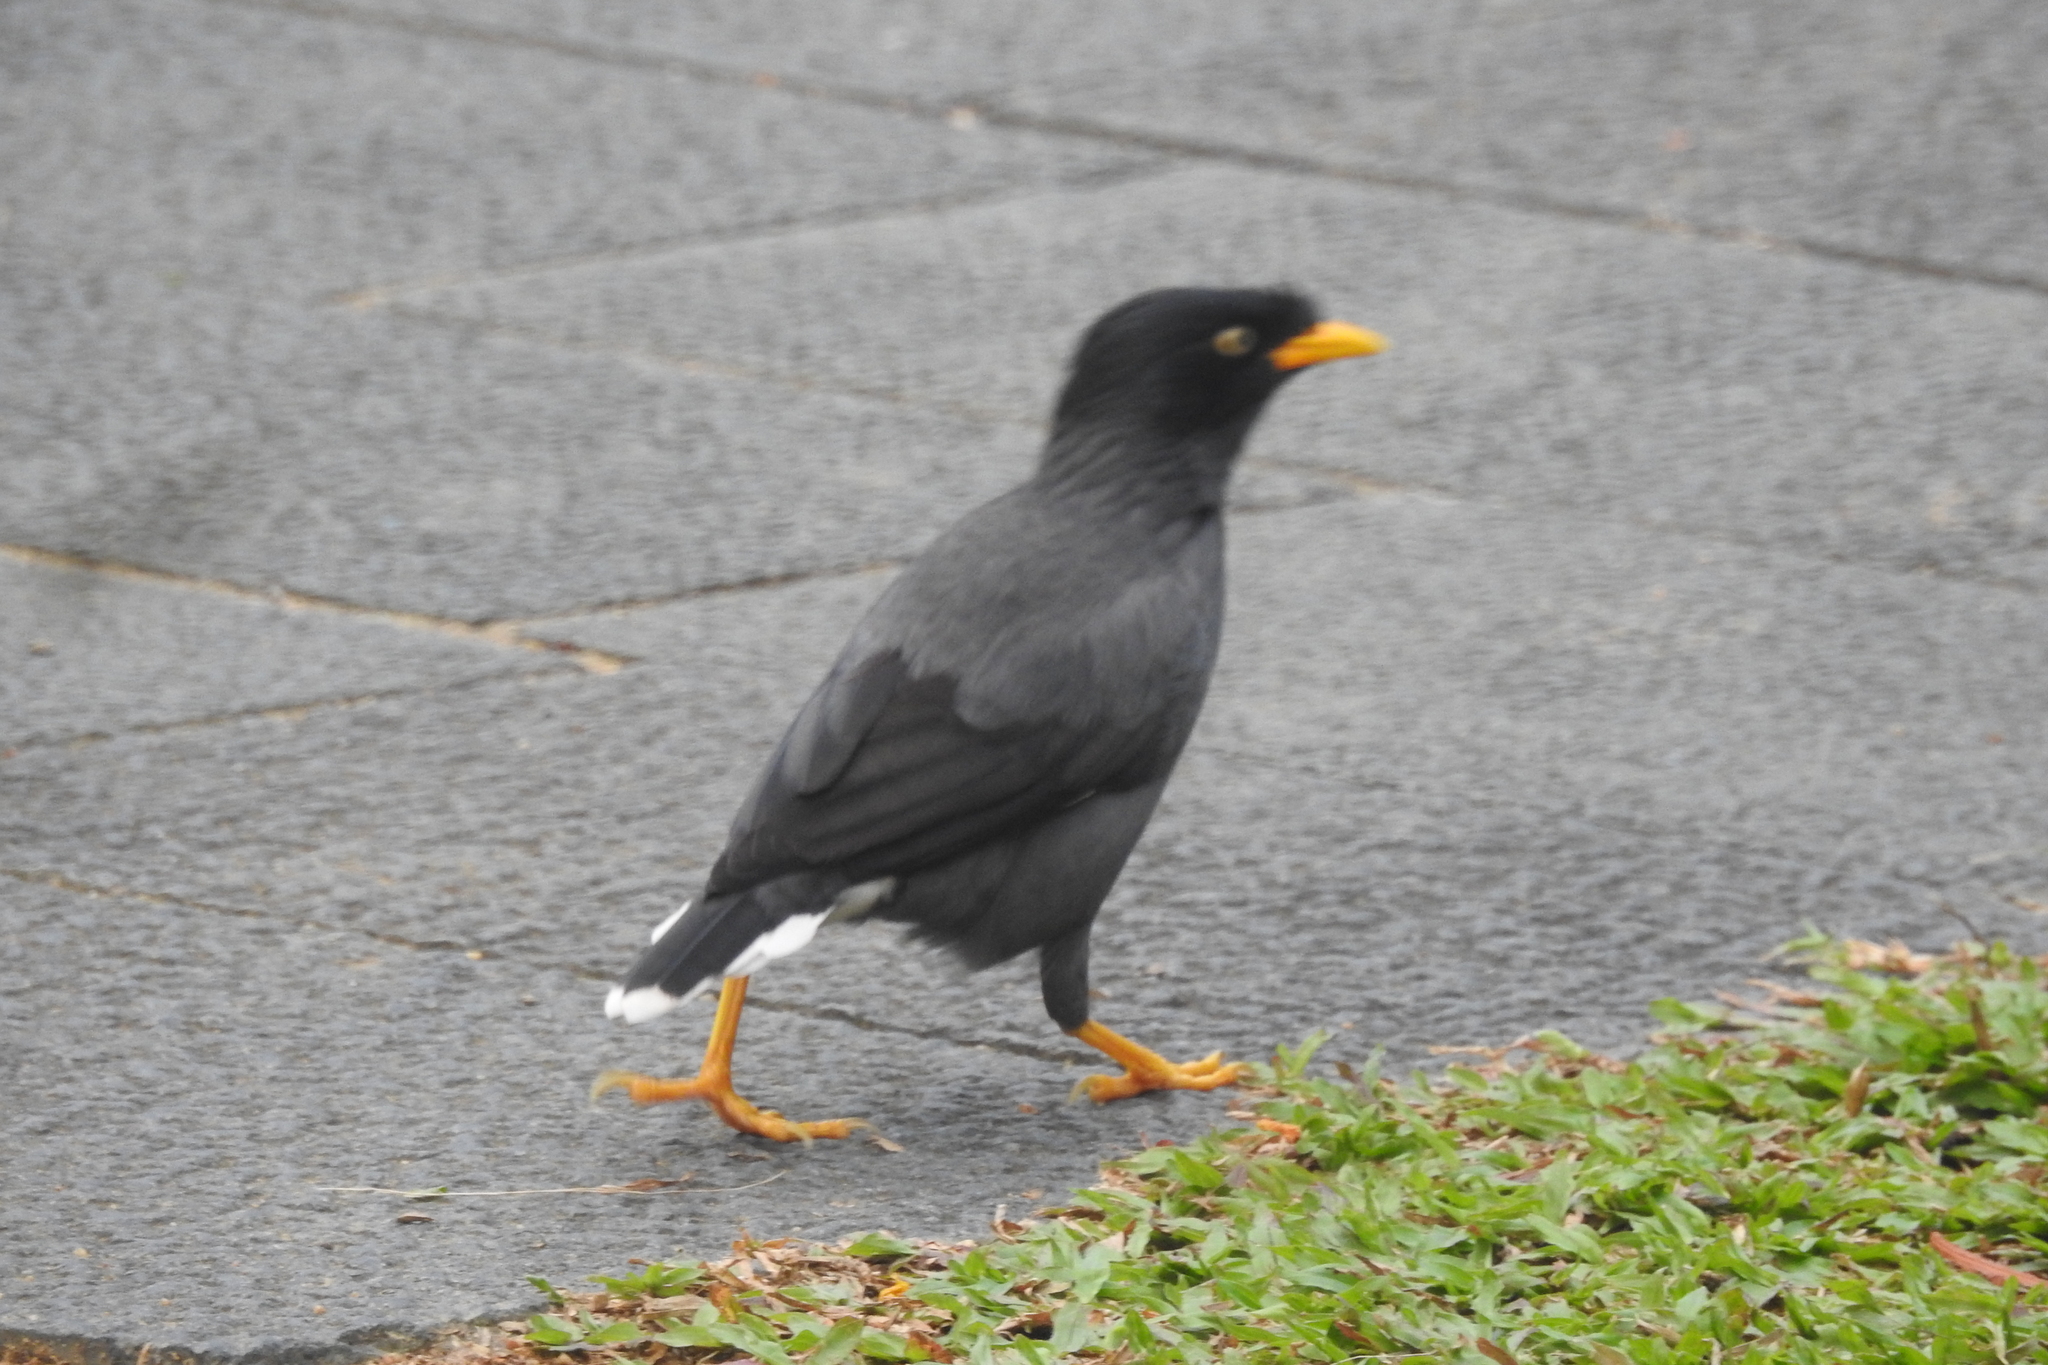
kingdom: Animalia
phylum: Chordata
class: Aves
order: Passeriformes
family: Sturnidae
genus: Acridotheres
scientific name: Acridotheres javanicus
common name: Javan myna
